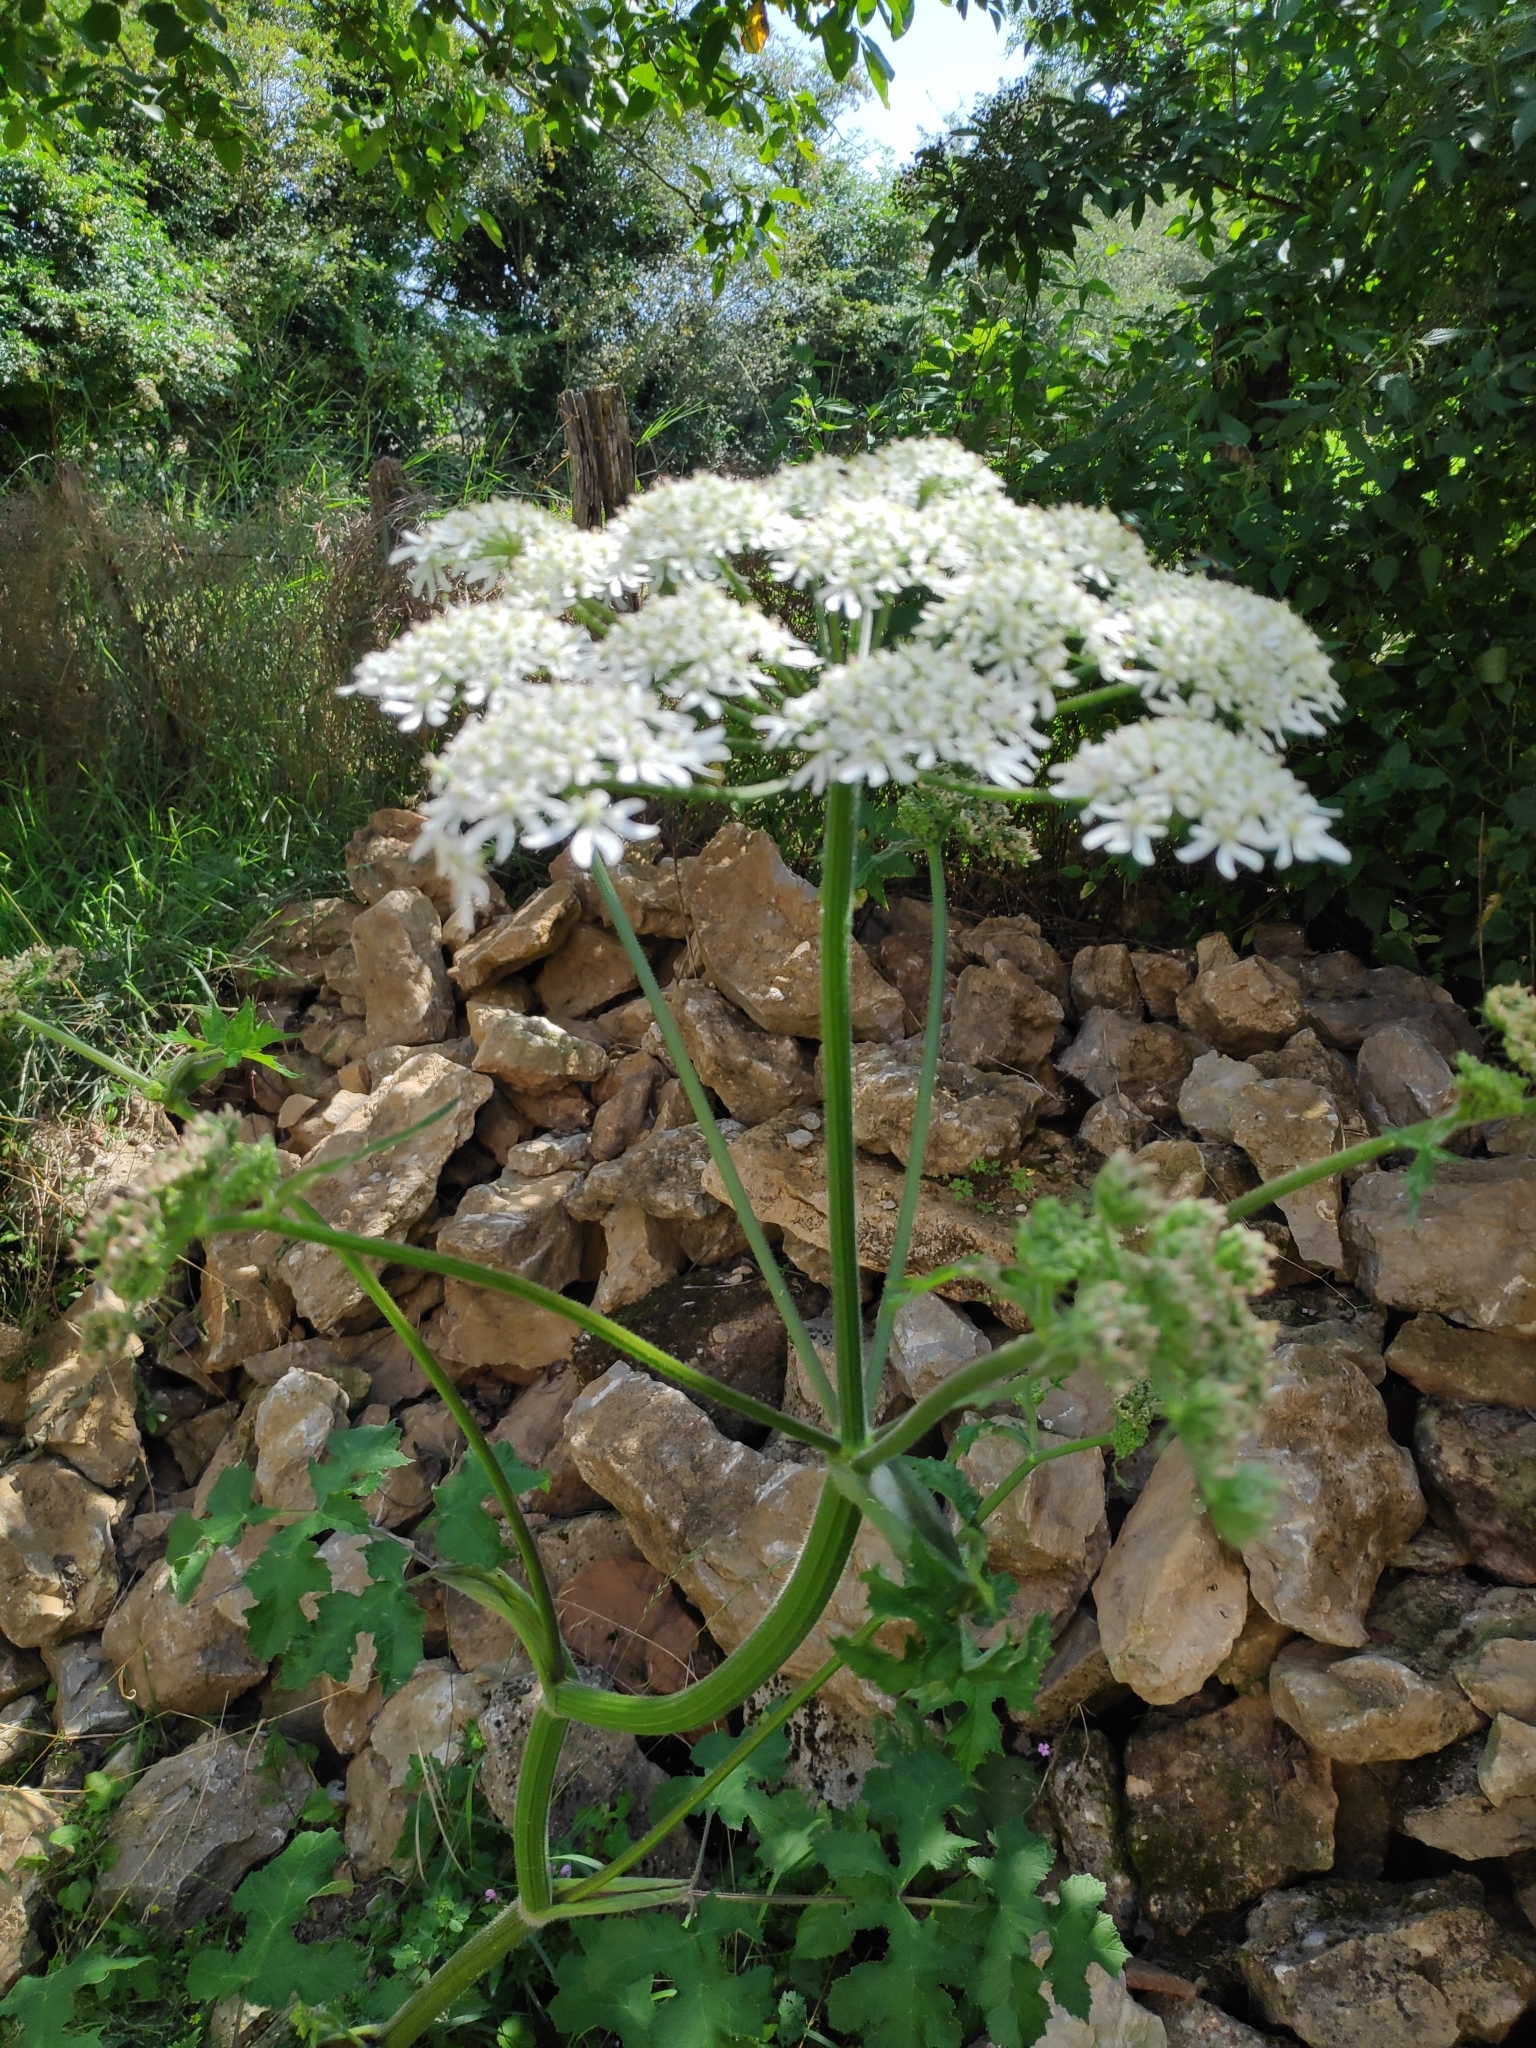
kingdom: Plantae
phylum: Tracheophyta
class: Magnoliopsida
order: Apiales
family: Apiaceae
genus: Heracleum
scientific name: Heracleum sphondylium
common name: Hogweed
